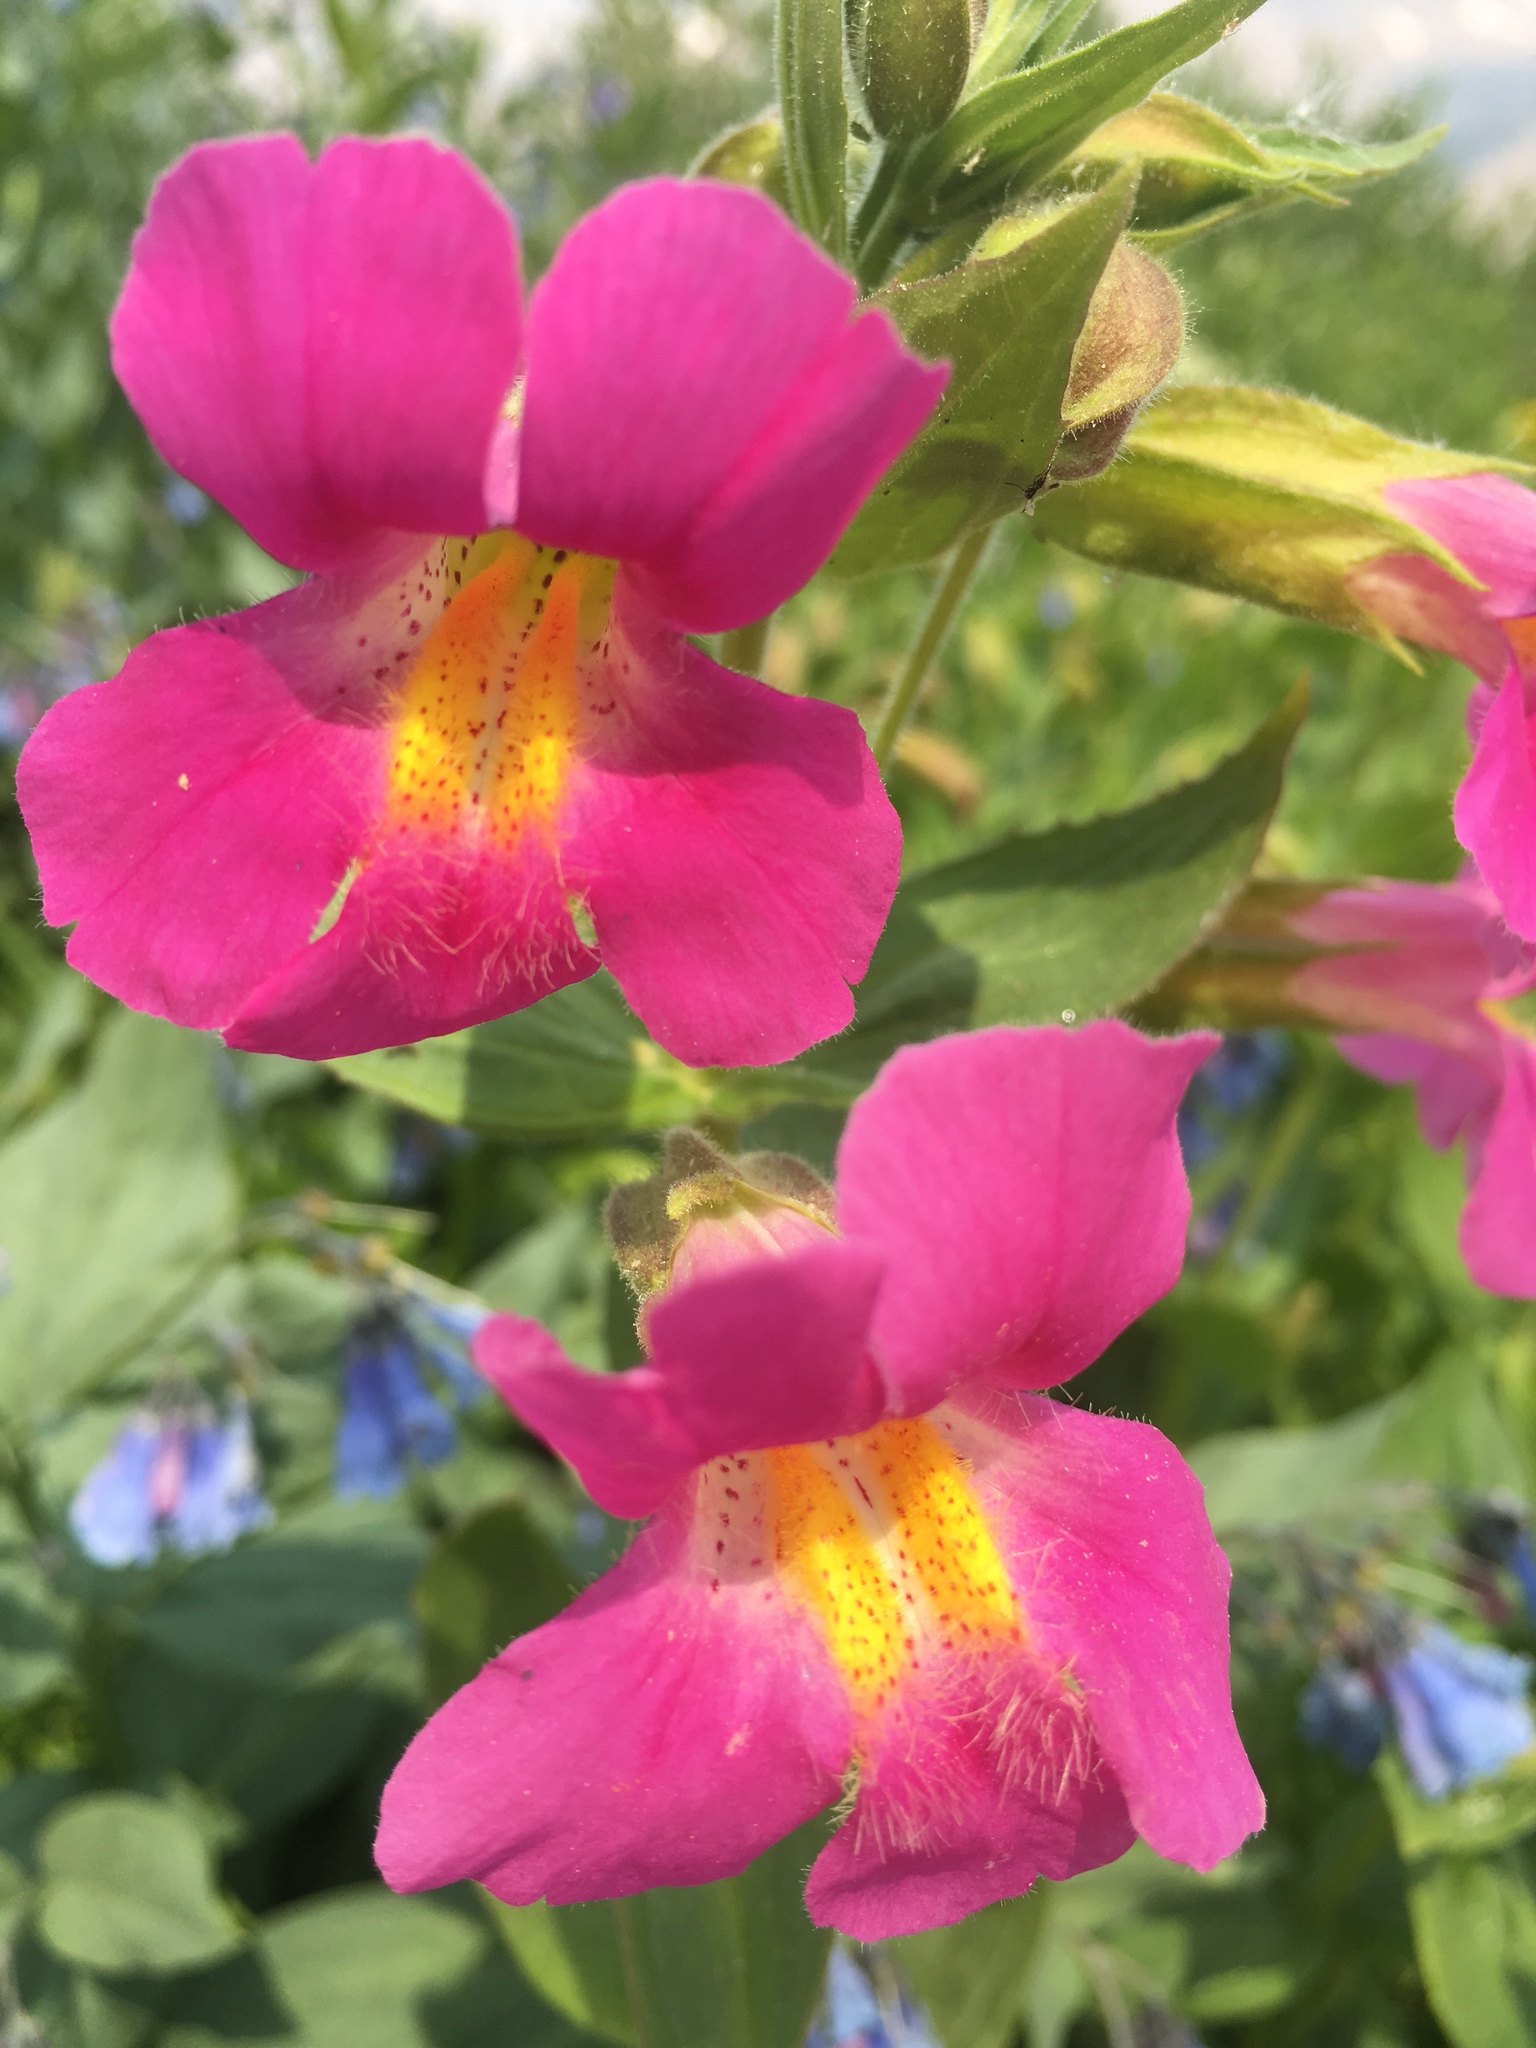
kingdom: Plantae
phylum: Tracheophyta
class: Magnoliopsida
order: Lamiales
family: Phrymaceae
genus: Erythranthe
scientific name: Erythranthe lewisii
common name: Lewis's monkey-flower
